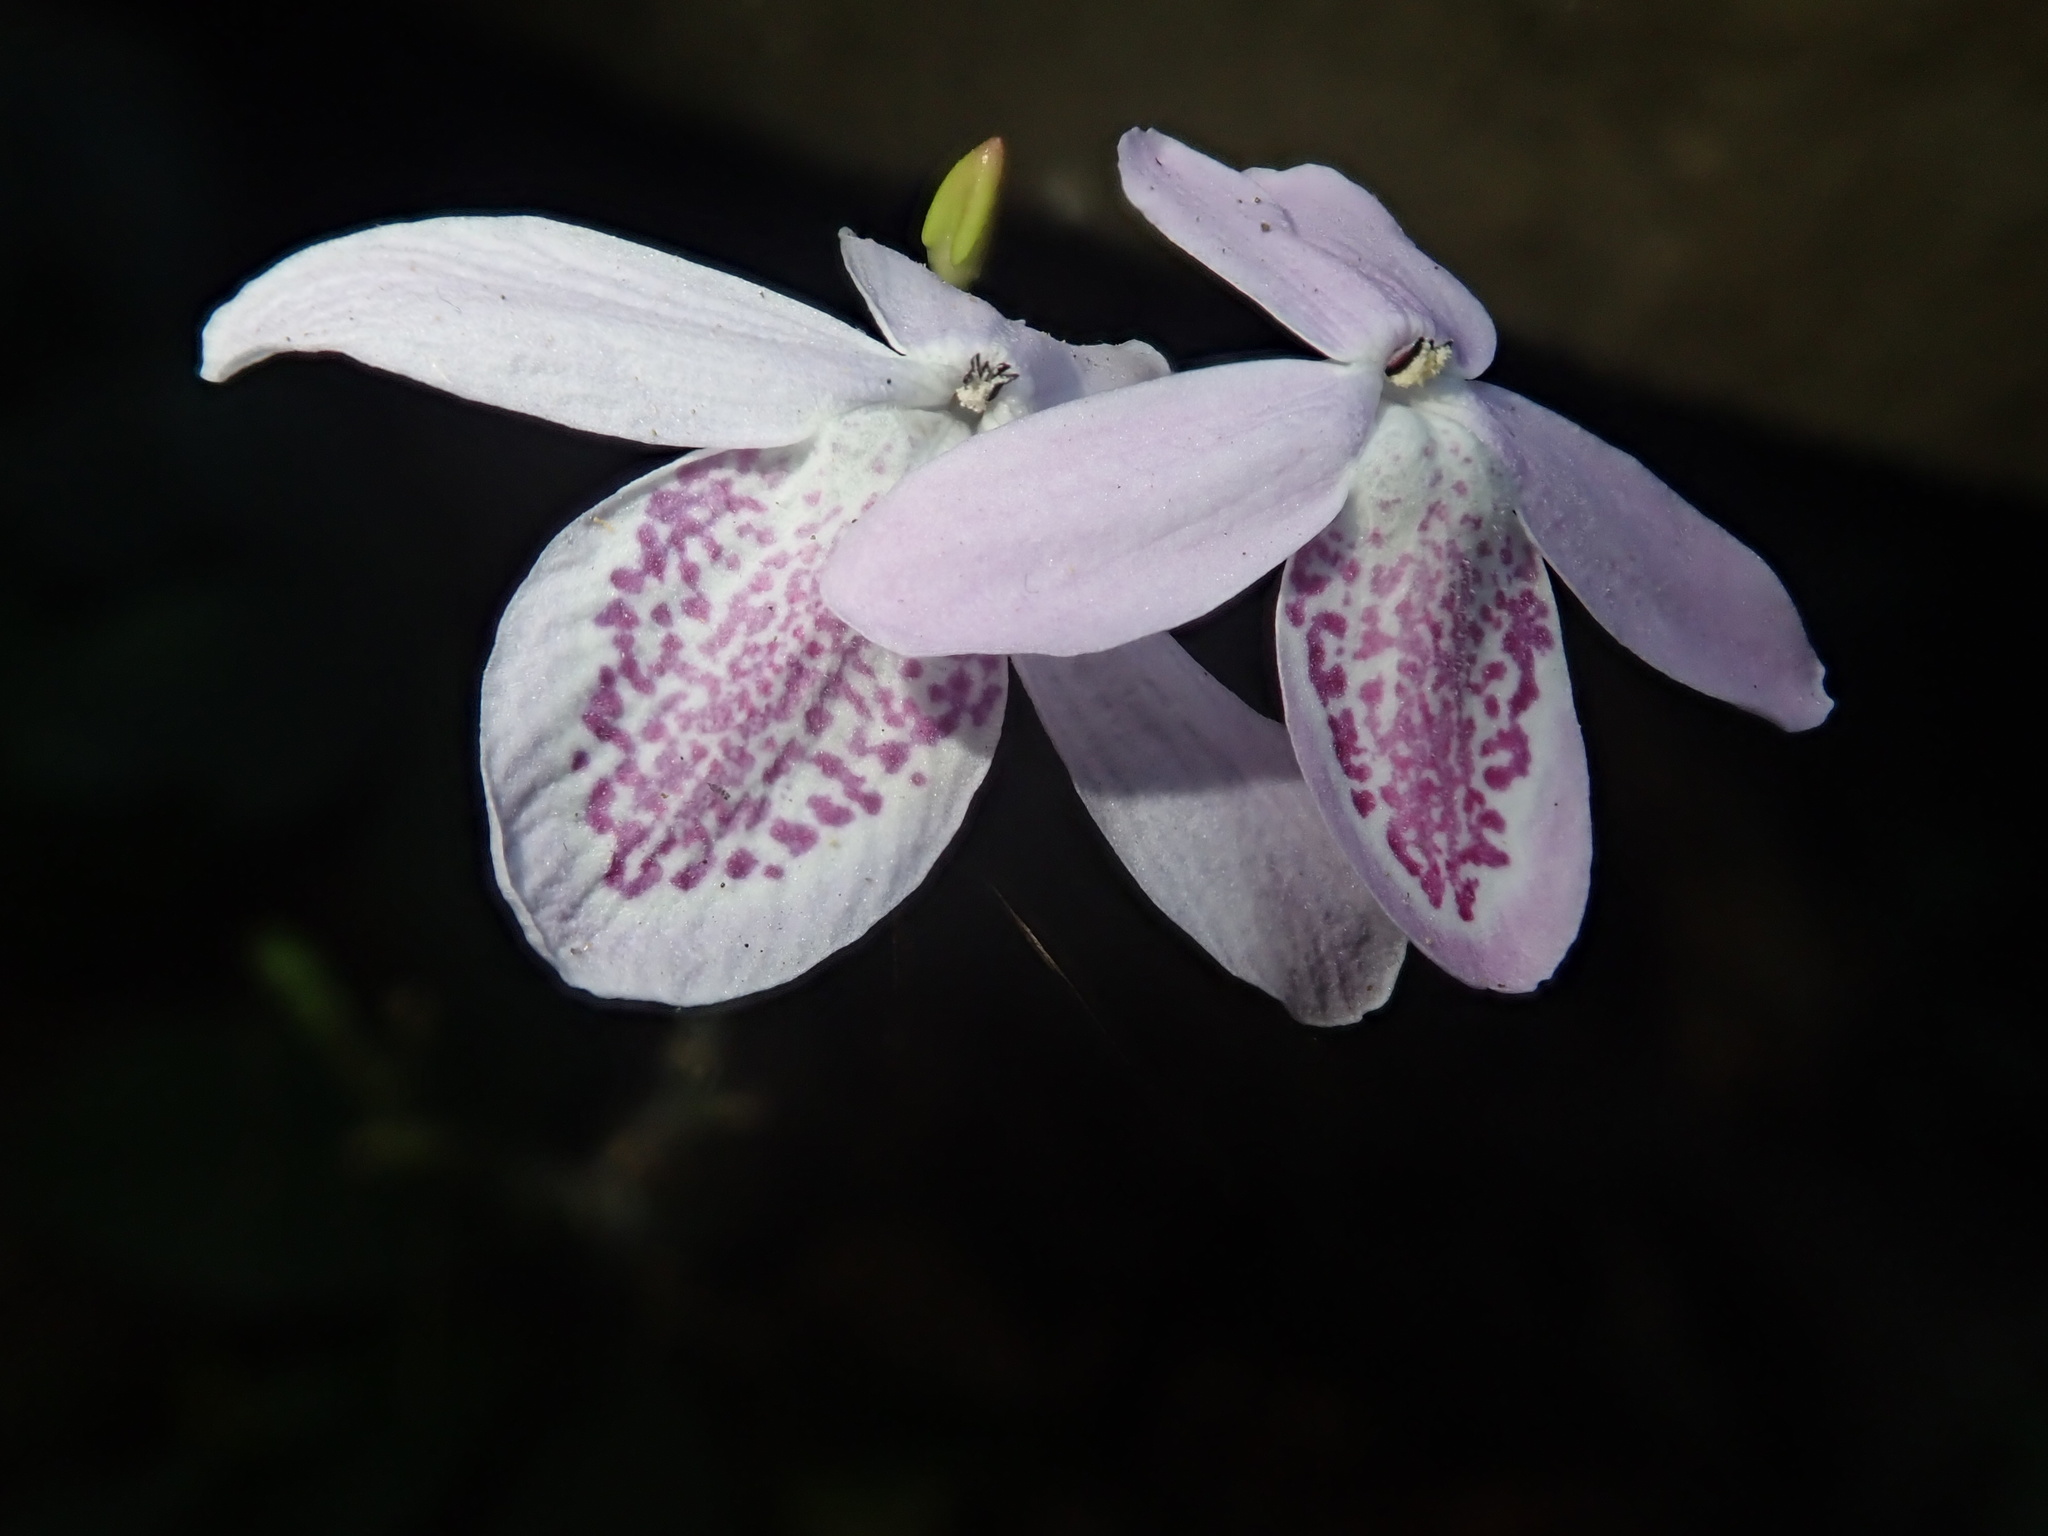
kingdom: Plantae
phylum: Tracheophyta
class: Magnoliopsida
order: Lamiales
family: Acanthaceae
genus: Pseuderanthemum
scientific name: Pseuderanthemum latifolium
